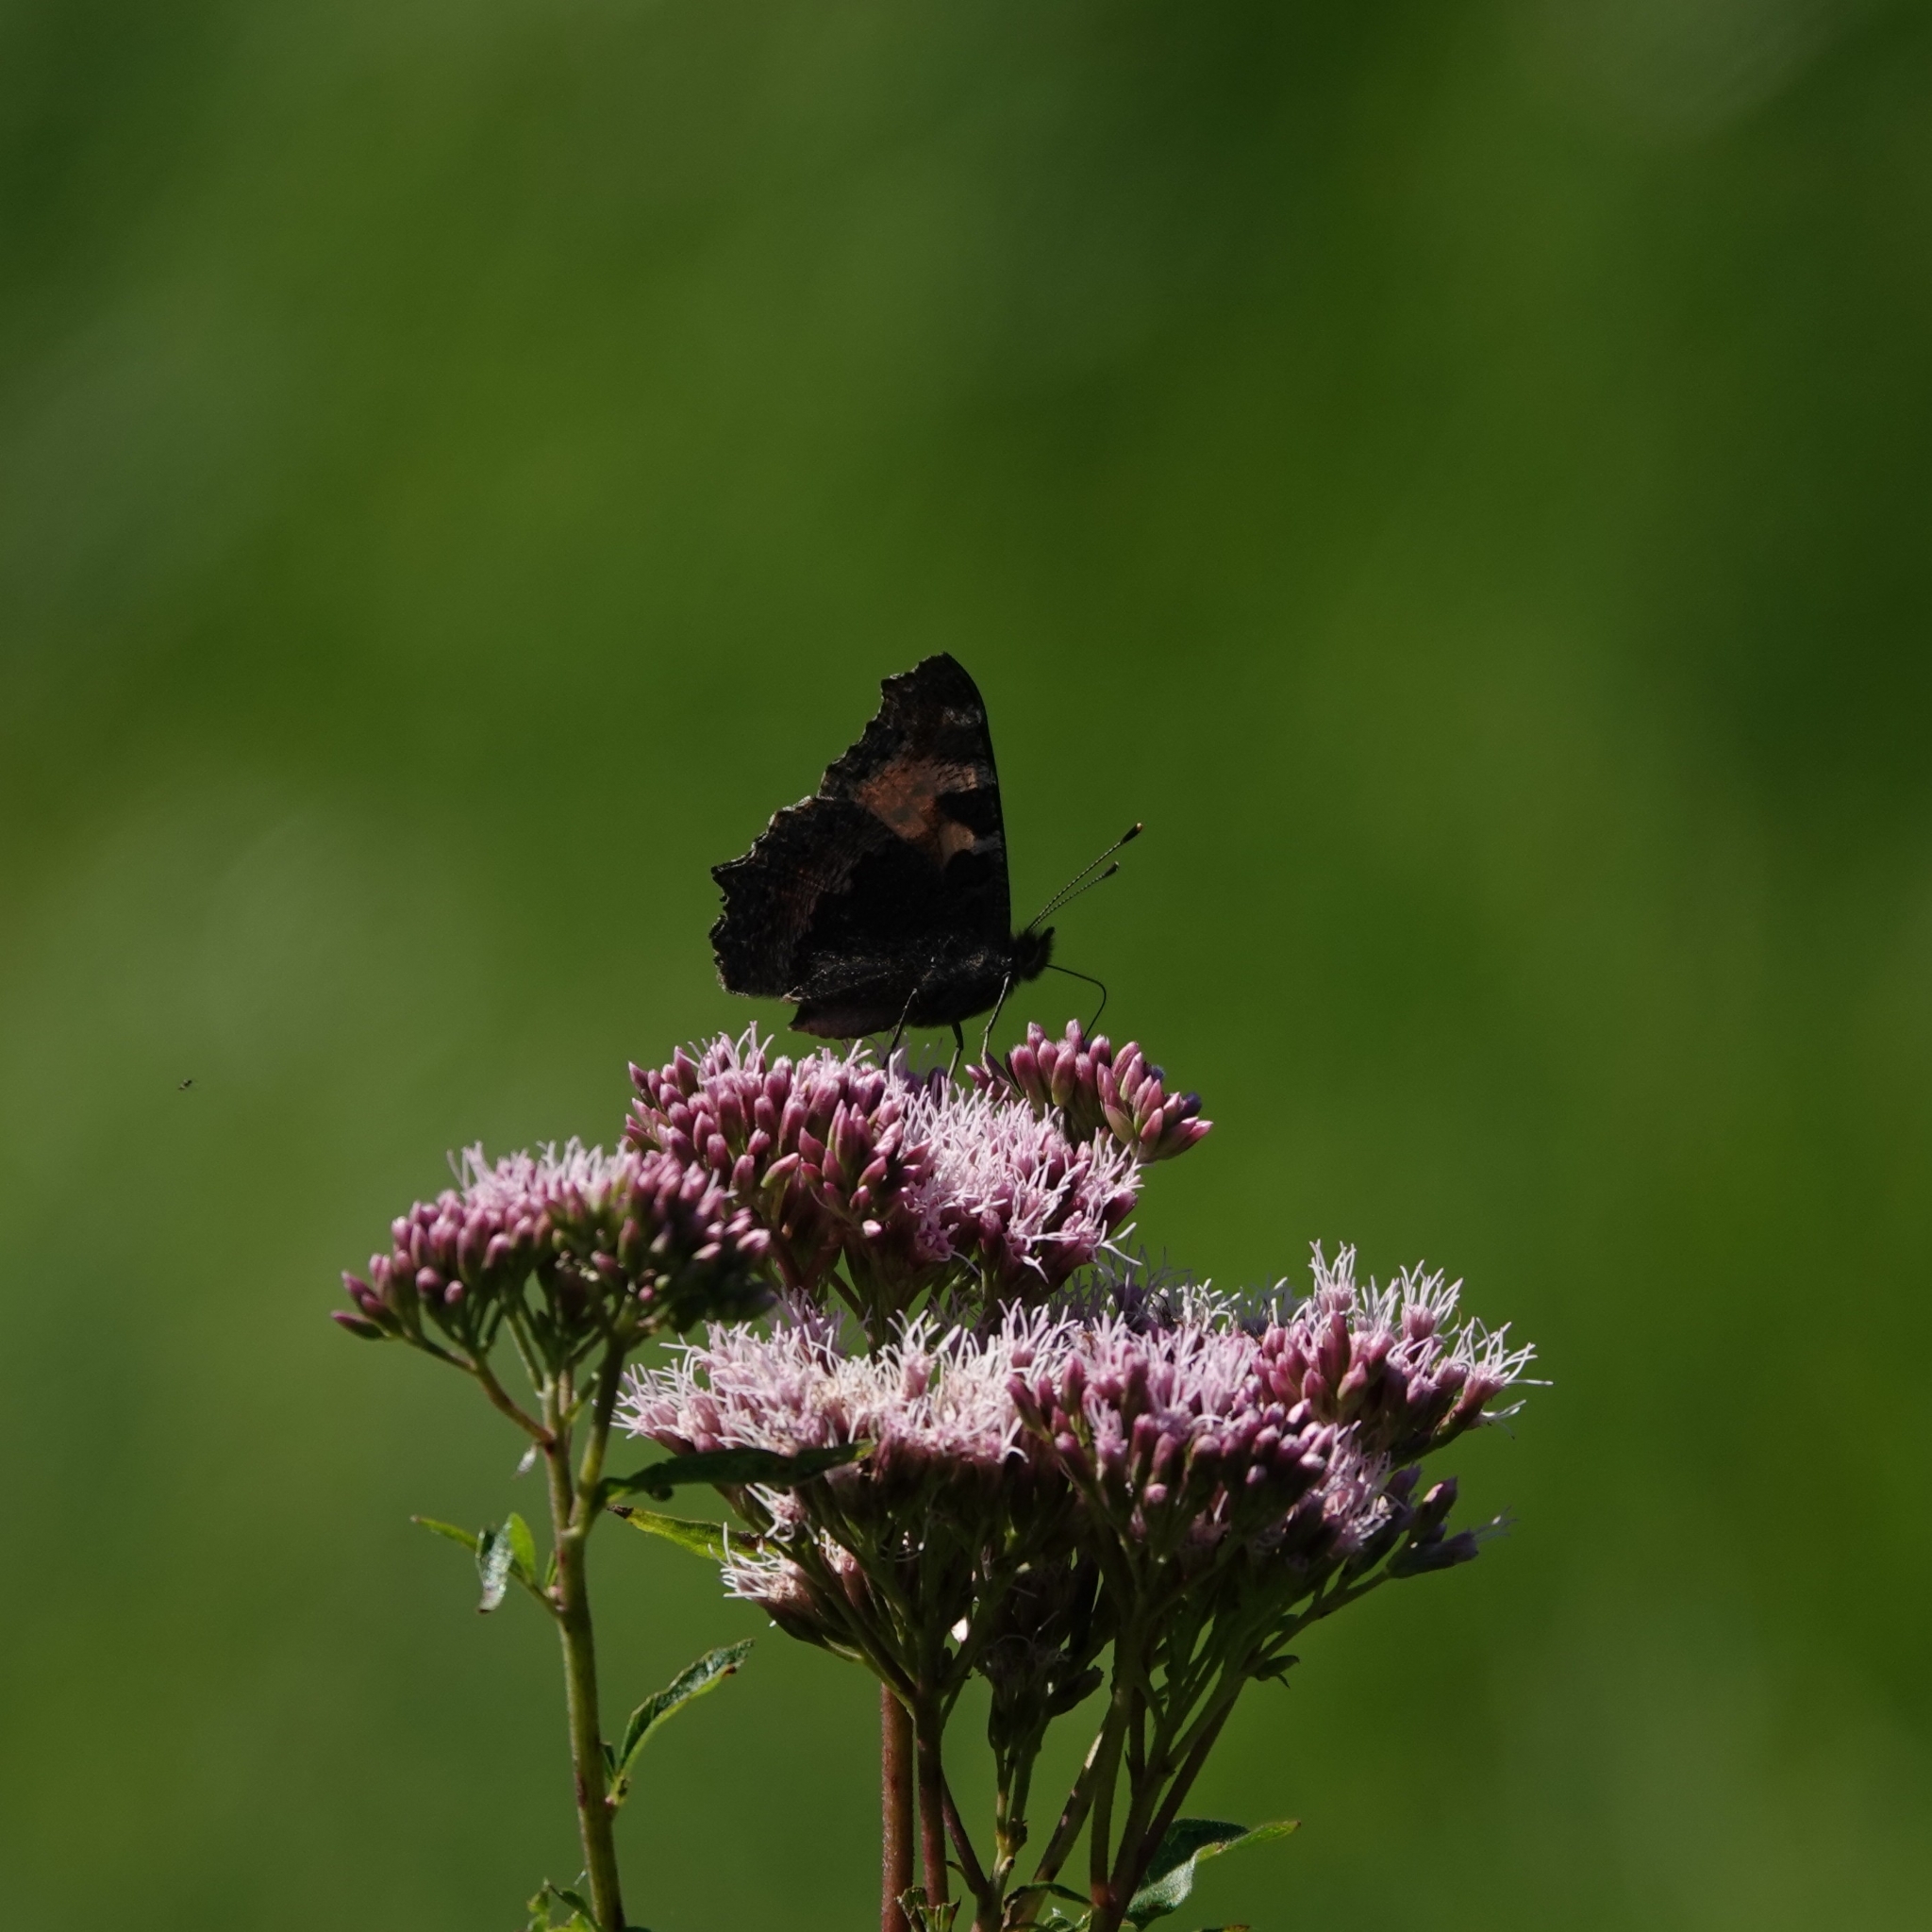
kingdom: Animalia
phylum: Arthropoda
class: Insecta
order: Lepidoptera
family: Nymphalidae
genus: Aglais
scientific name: Aglais urticae
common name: Small tortoiseshell
